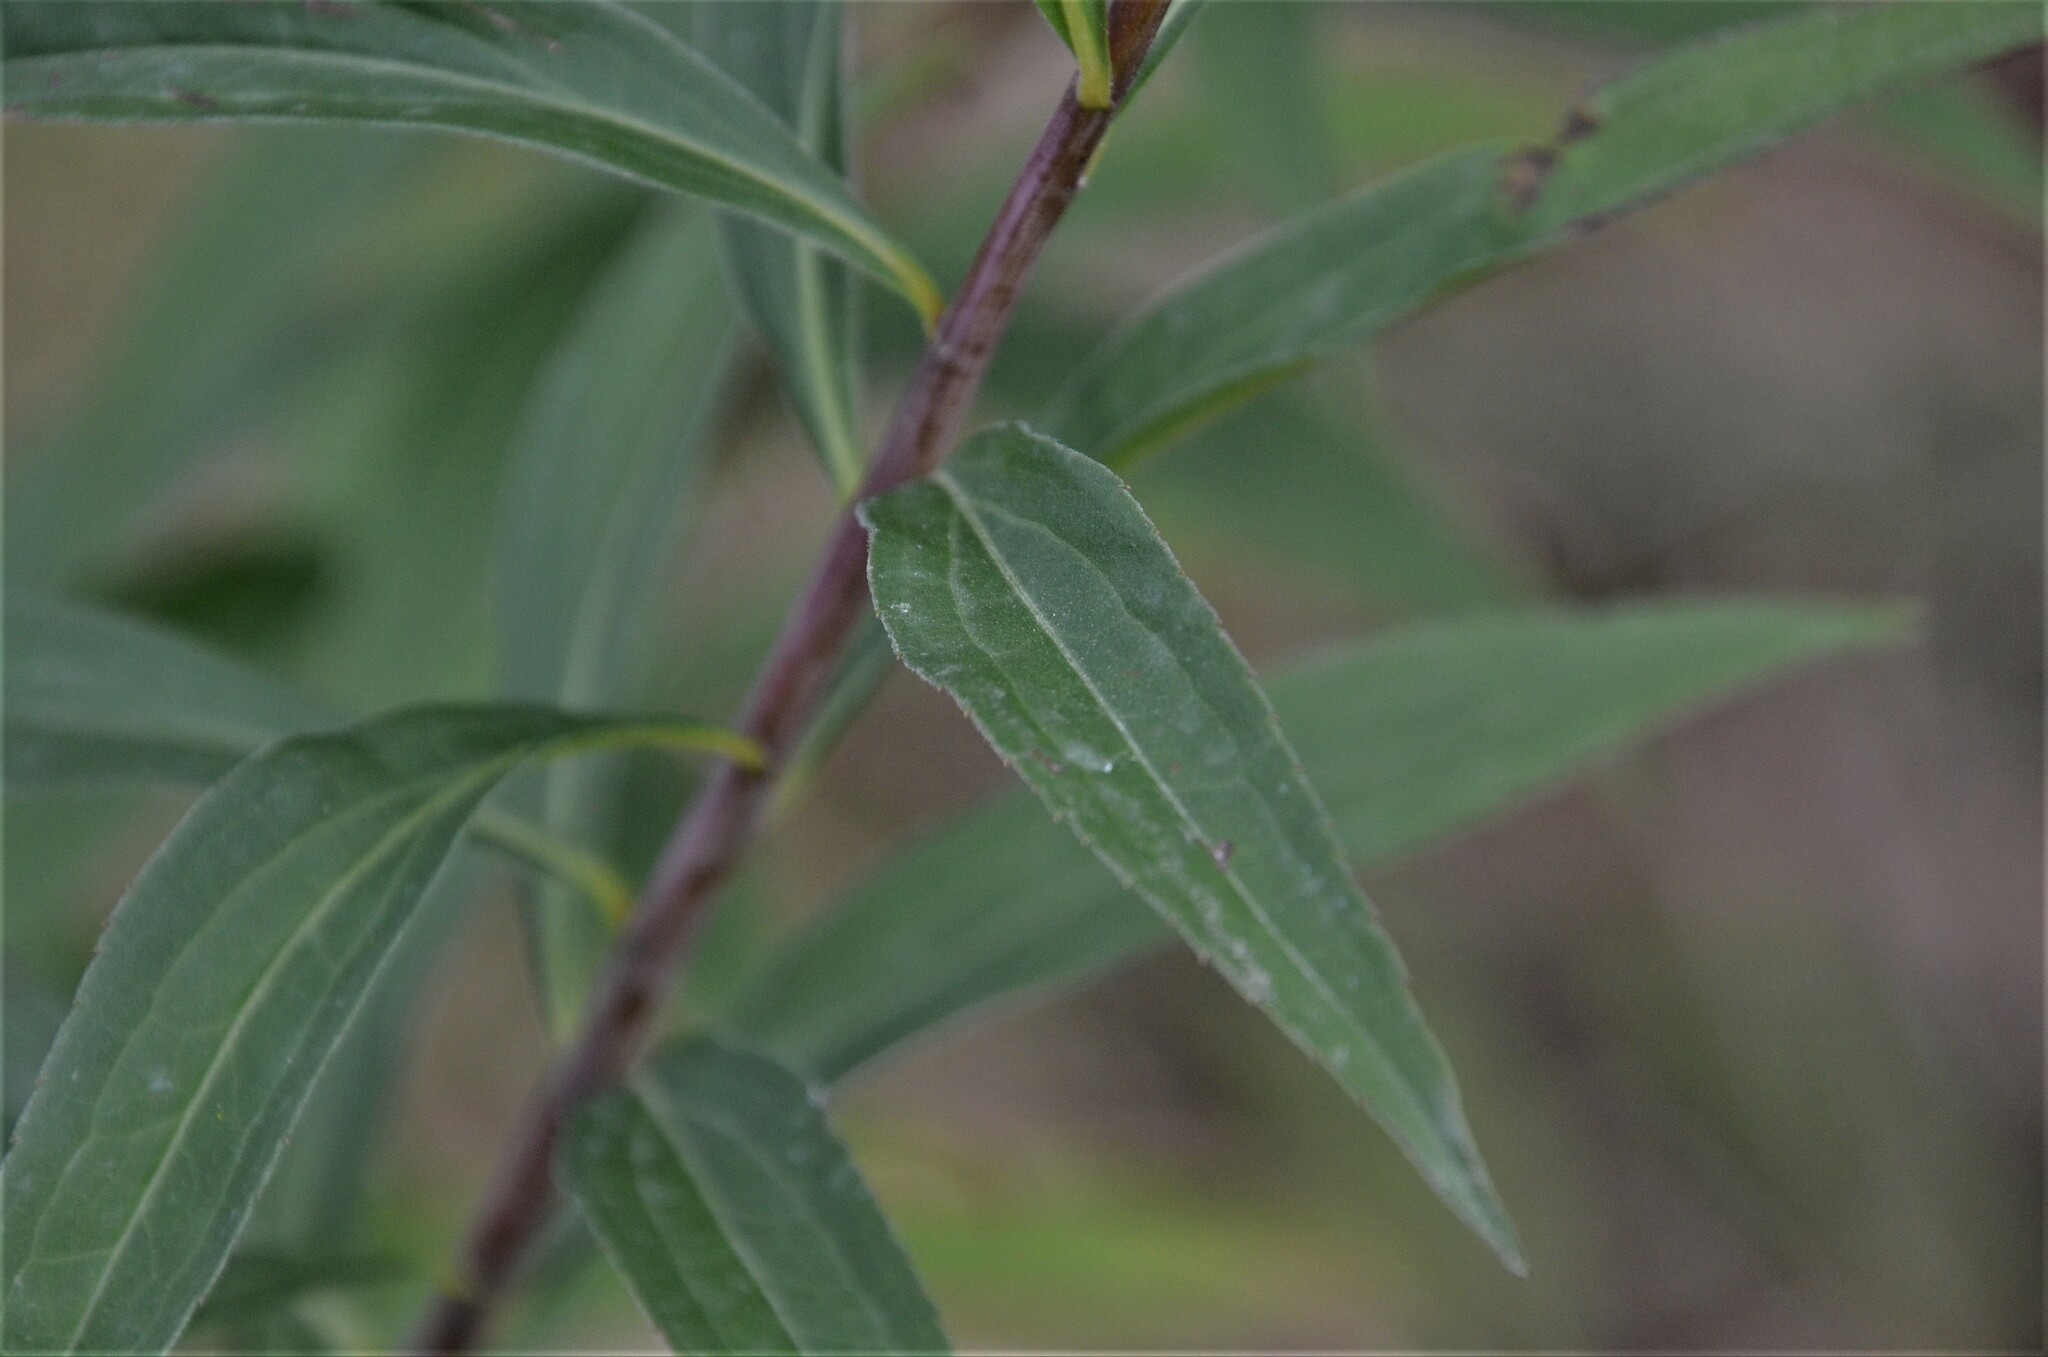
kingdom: Plantae
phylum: Tracheophyta
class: Magnoliopsida
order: Asterales
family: Asteraceae
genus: Solidago
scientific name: Solidago virgaurea
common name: Goldenrod
